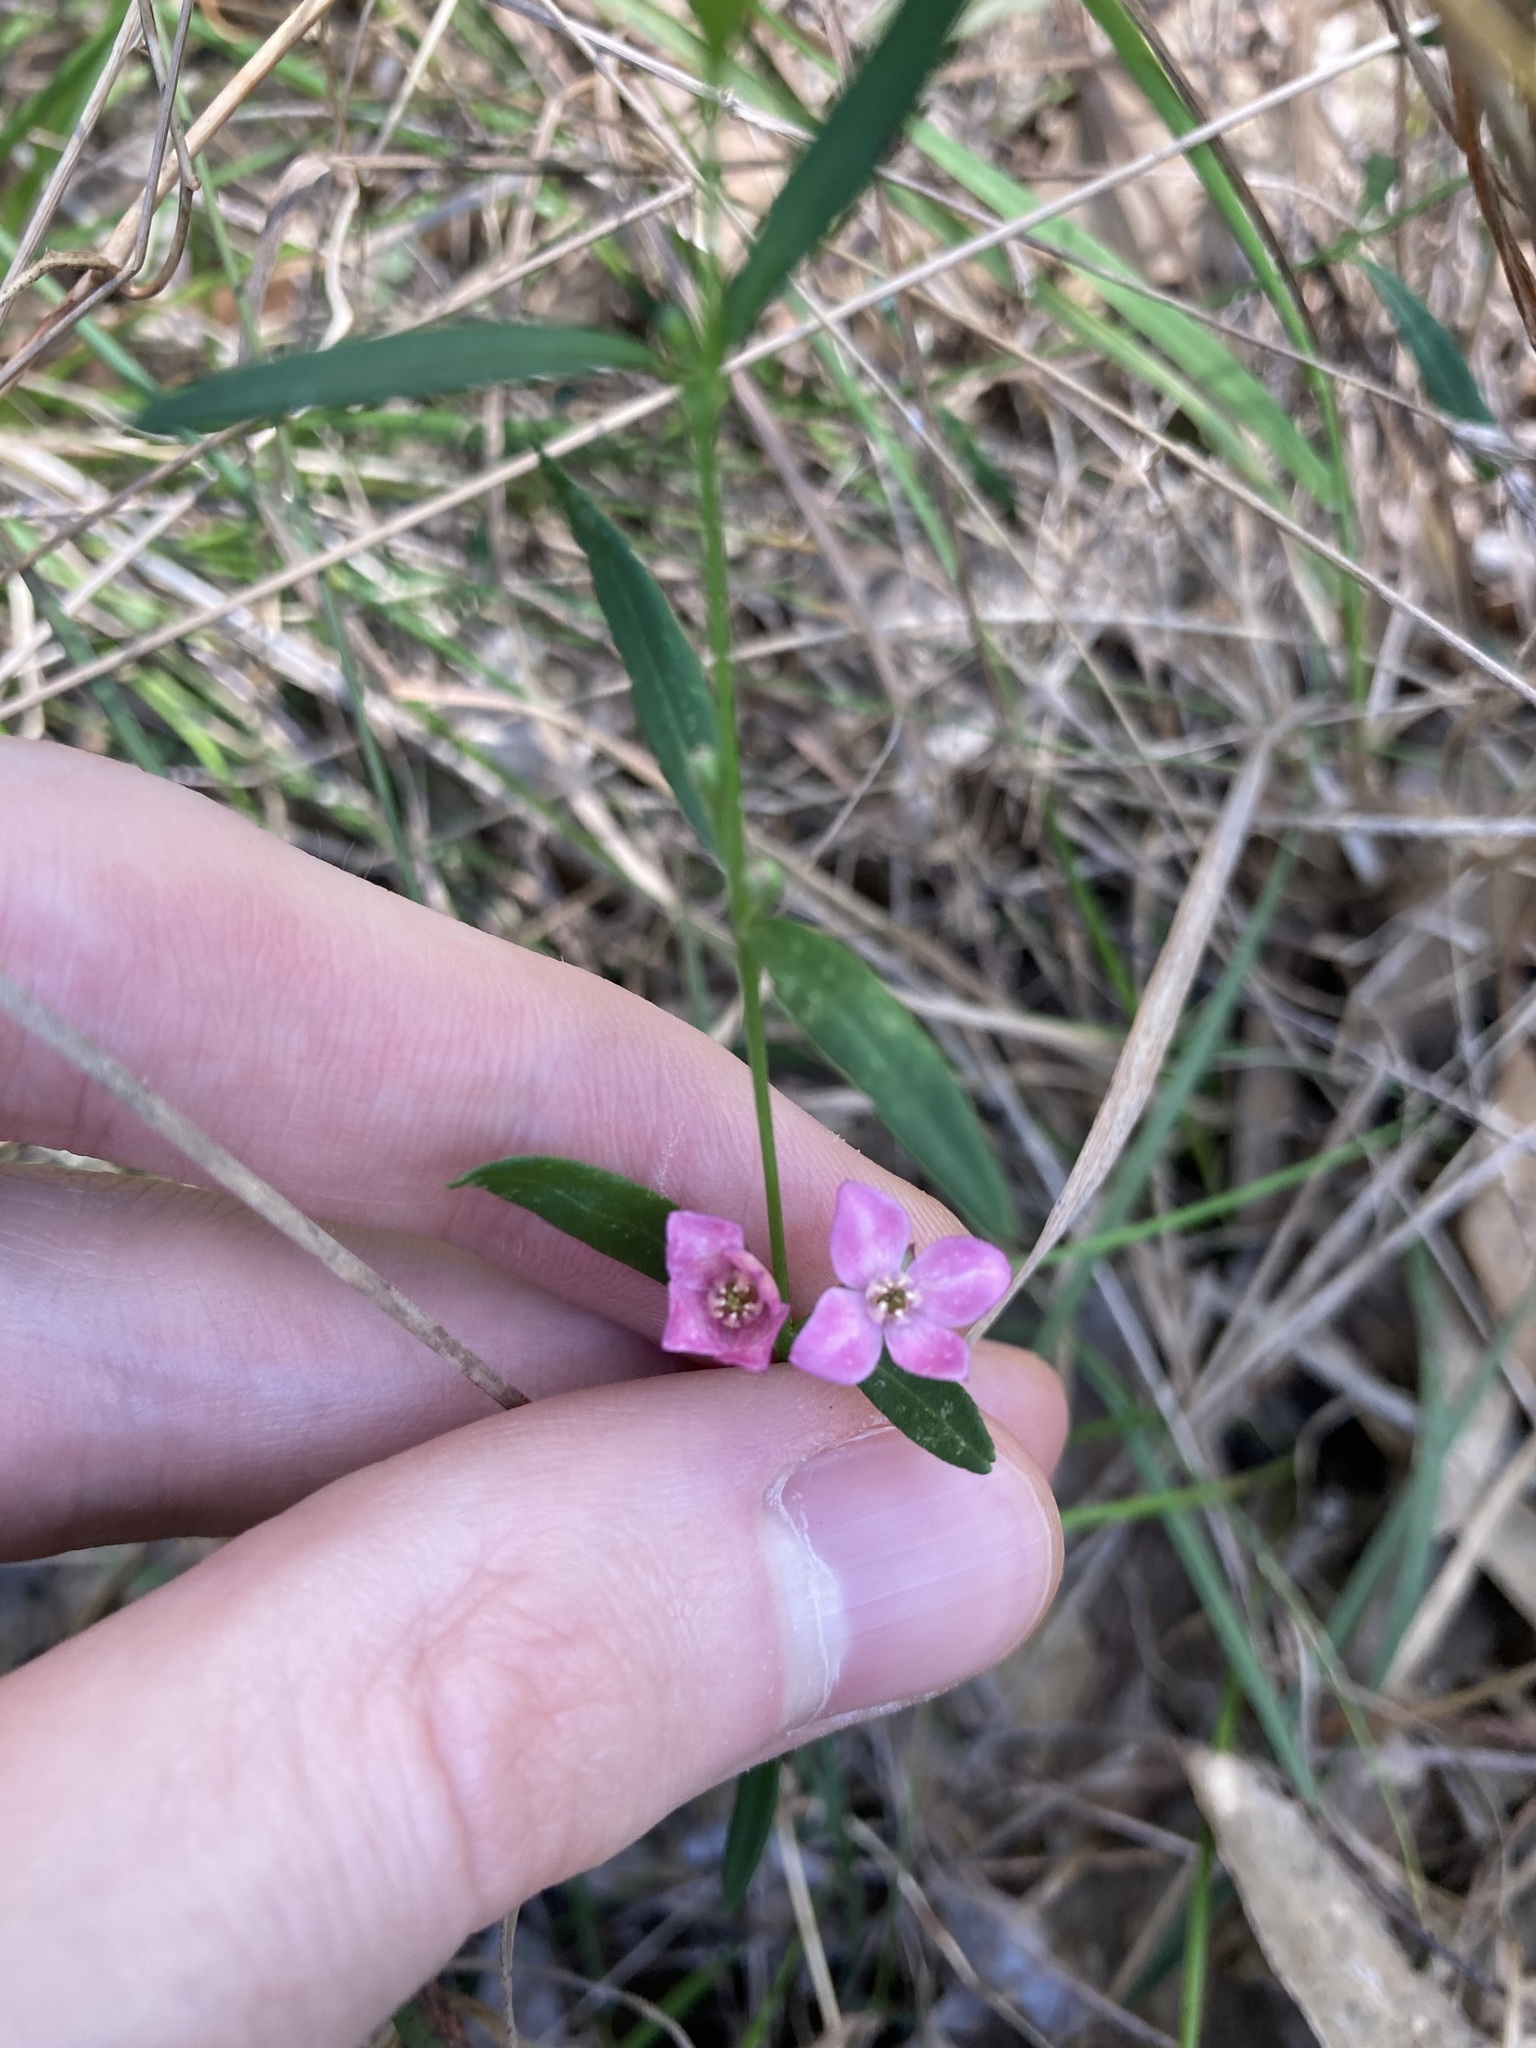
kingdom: Plantae
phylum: Tracheophyta
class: Magnoliopsida
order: Sapindales
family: Rutaceae
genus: Cyanothamnus
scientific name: Cyanothamnus polygalifolius
